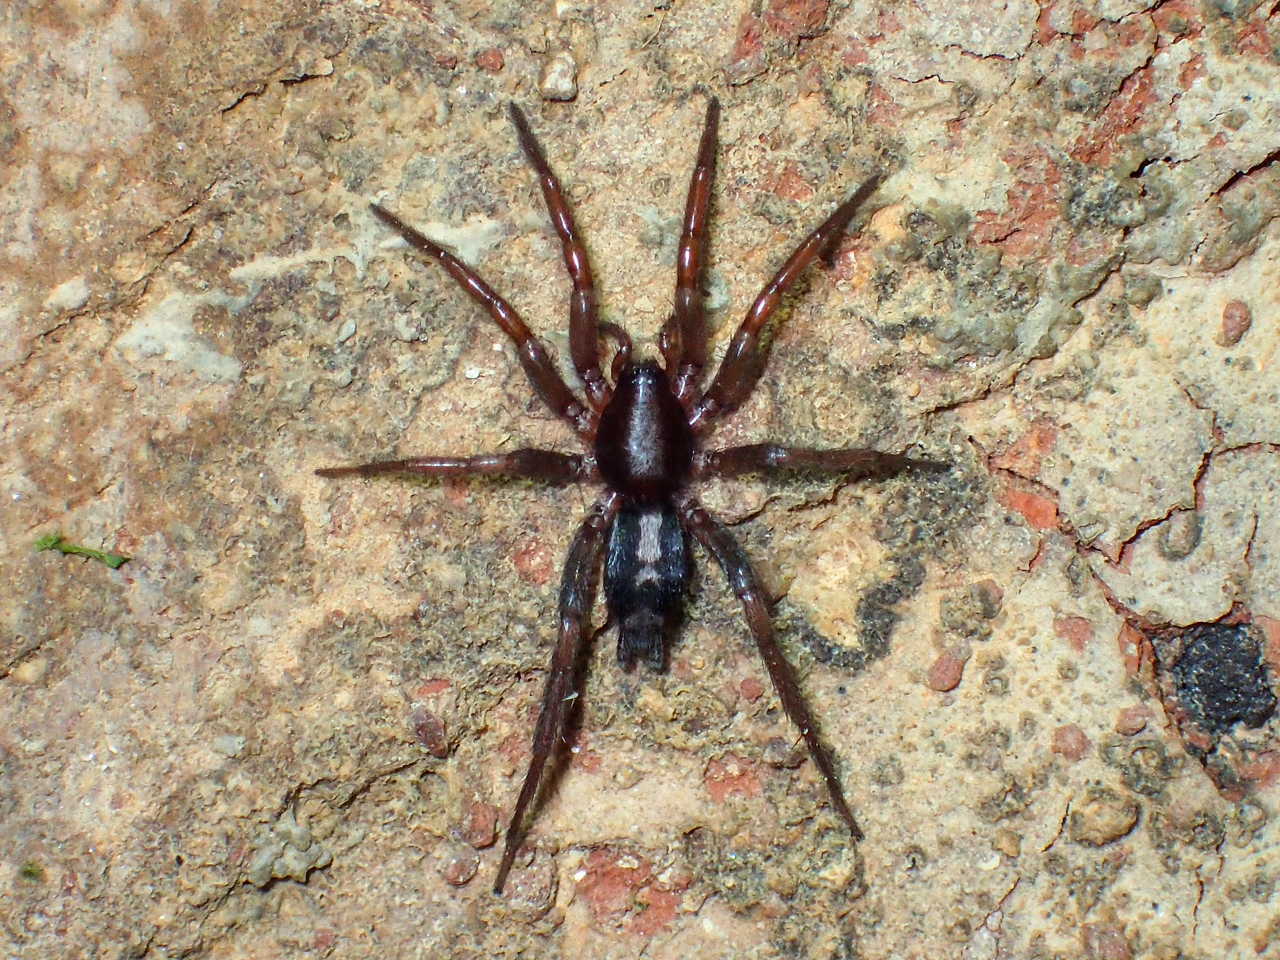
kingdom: Animalia
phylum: Arthropoda
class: Arachnida
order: Araneae
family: Gnaphosidae
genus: Herpyllus
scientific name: Herpyllus ecclesiasticus
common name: Eastern parson spider
